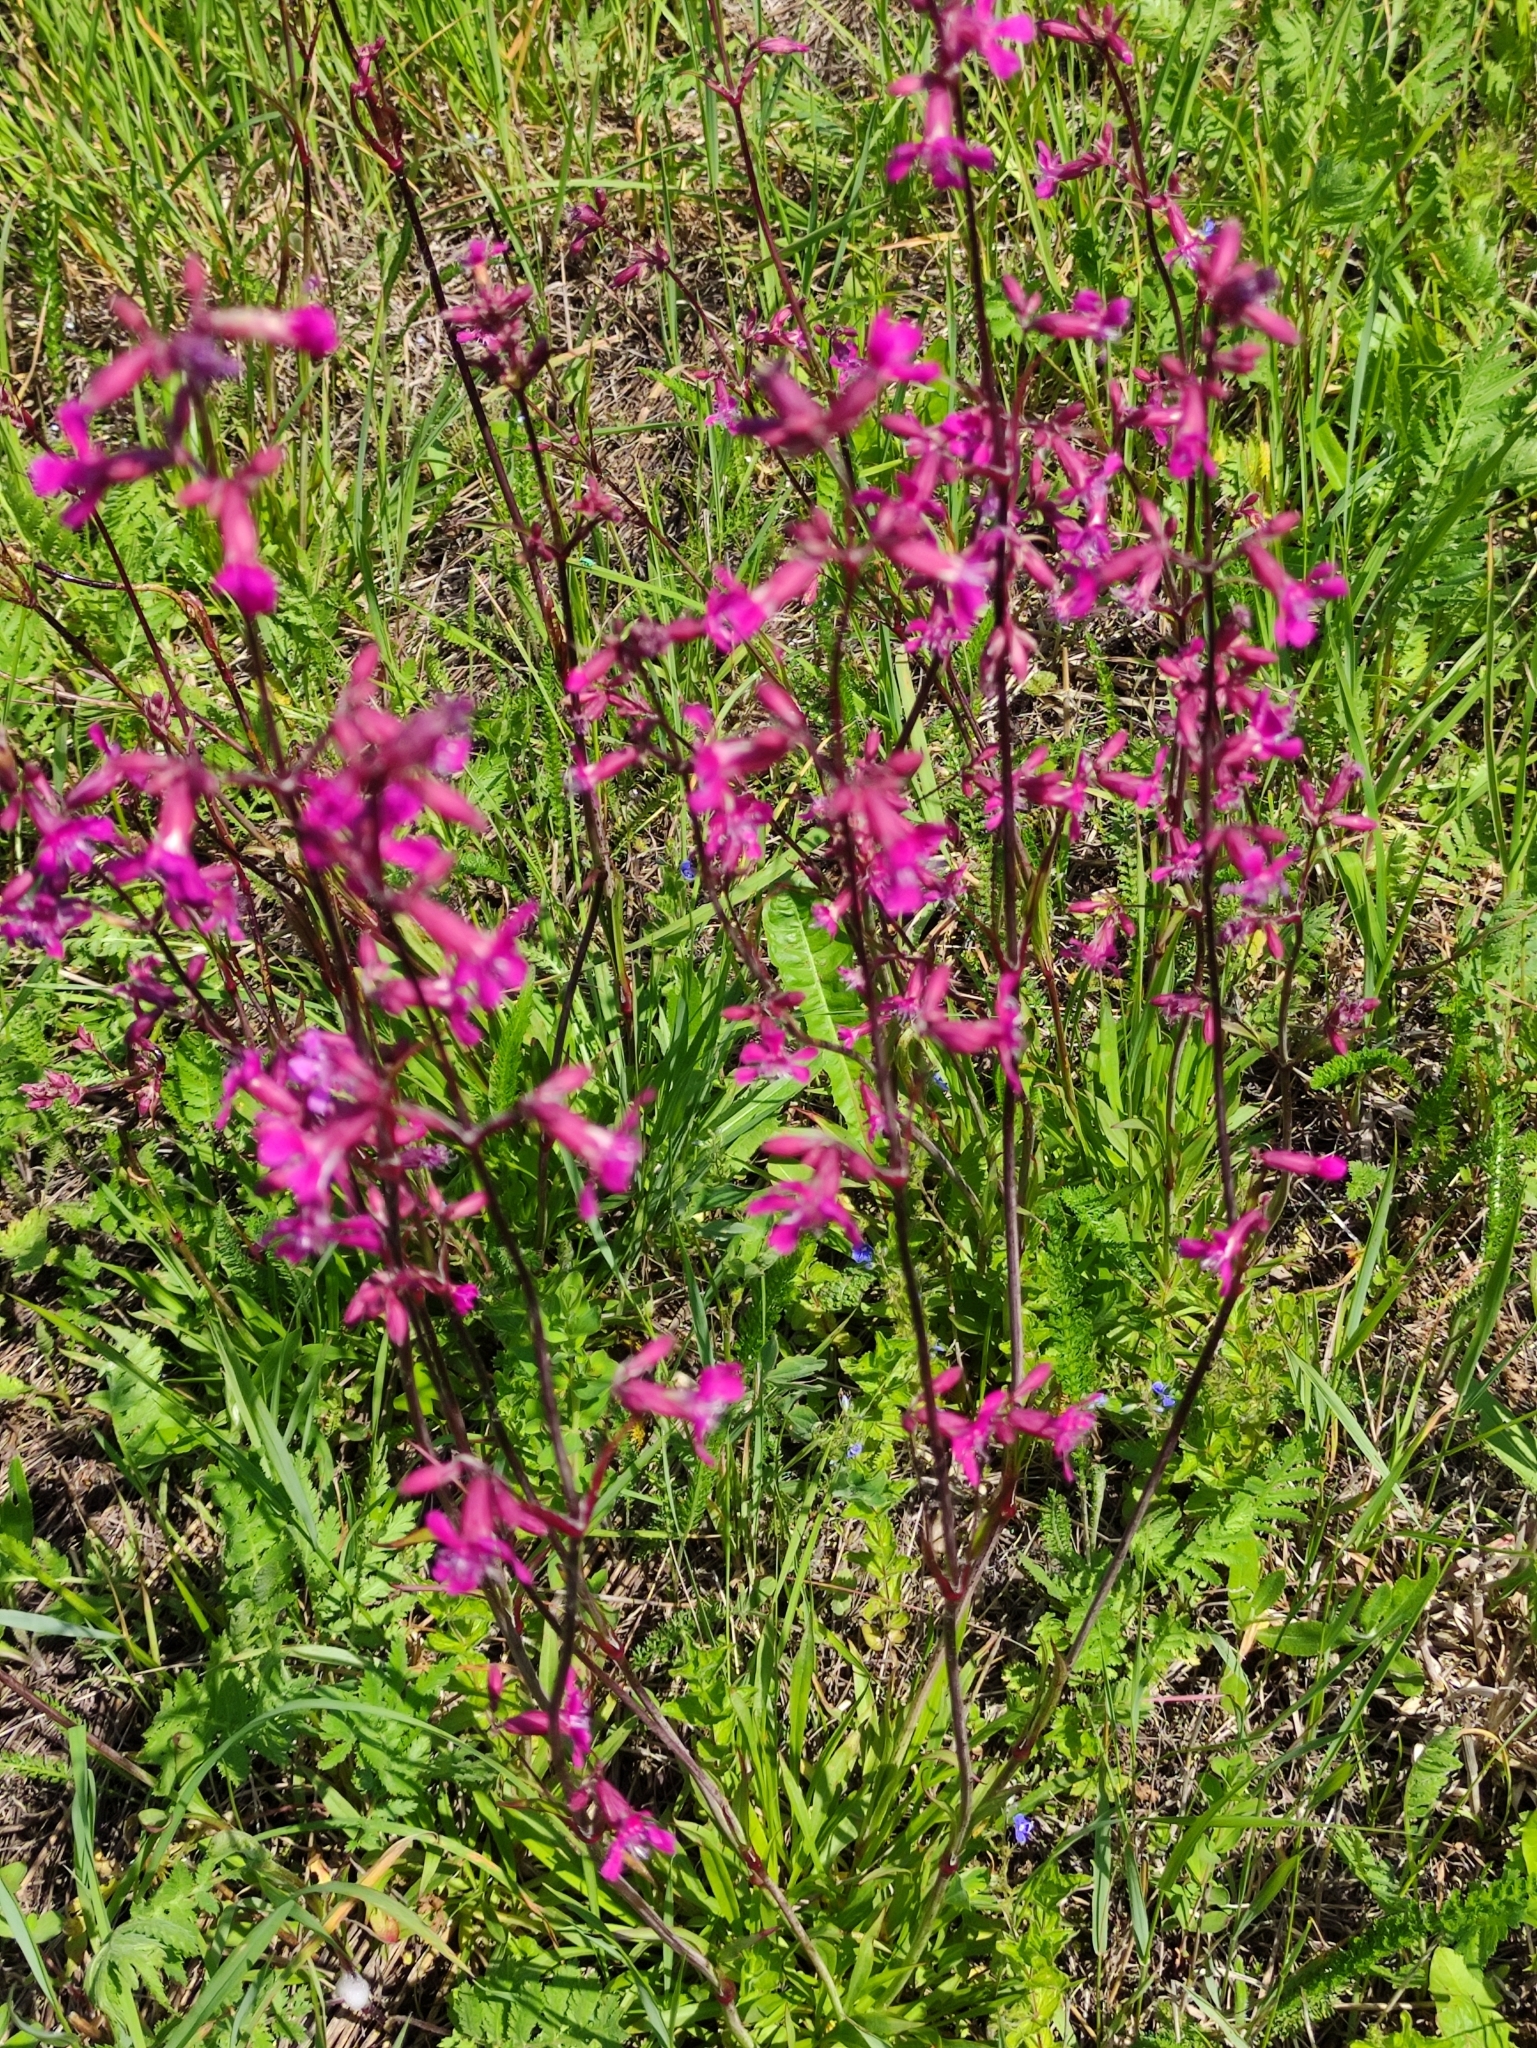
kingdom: Plantae
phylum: Tracheophyta
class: Magnoliopsida
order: Caryophyllales
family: Caryophyllaceae
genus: Viscaria
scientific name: Viscaria vulgaris
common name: Clammy campion
